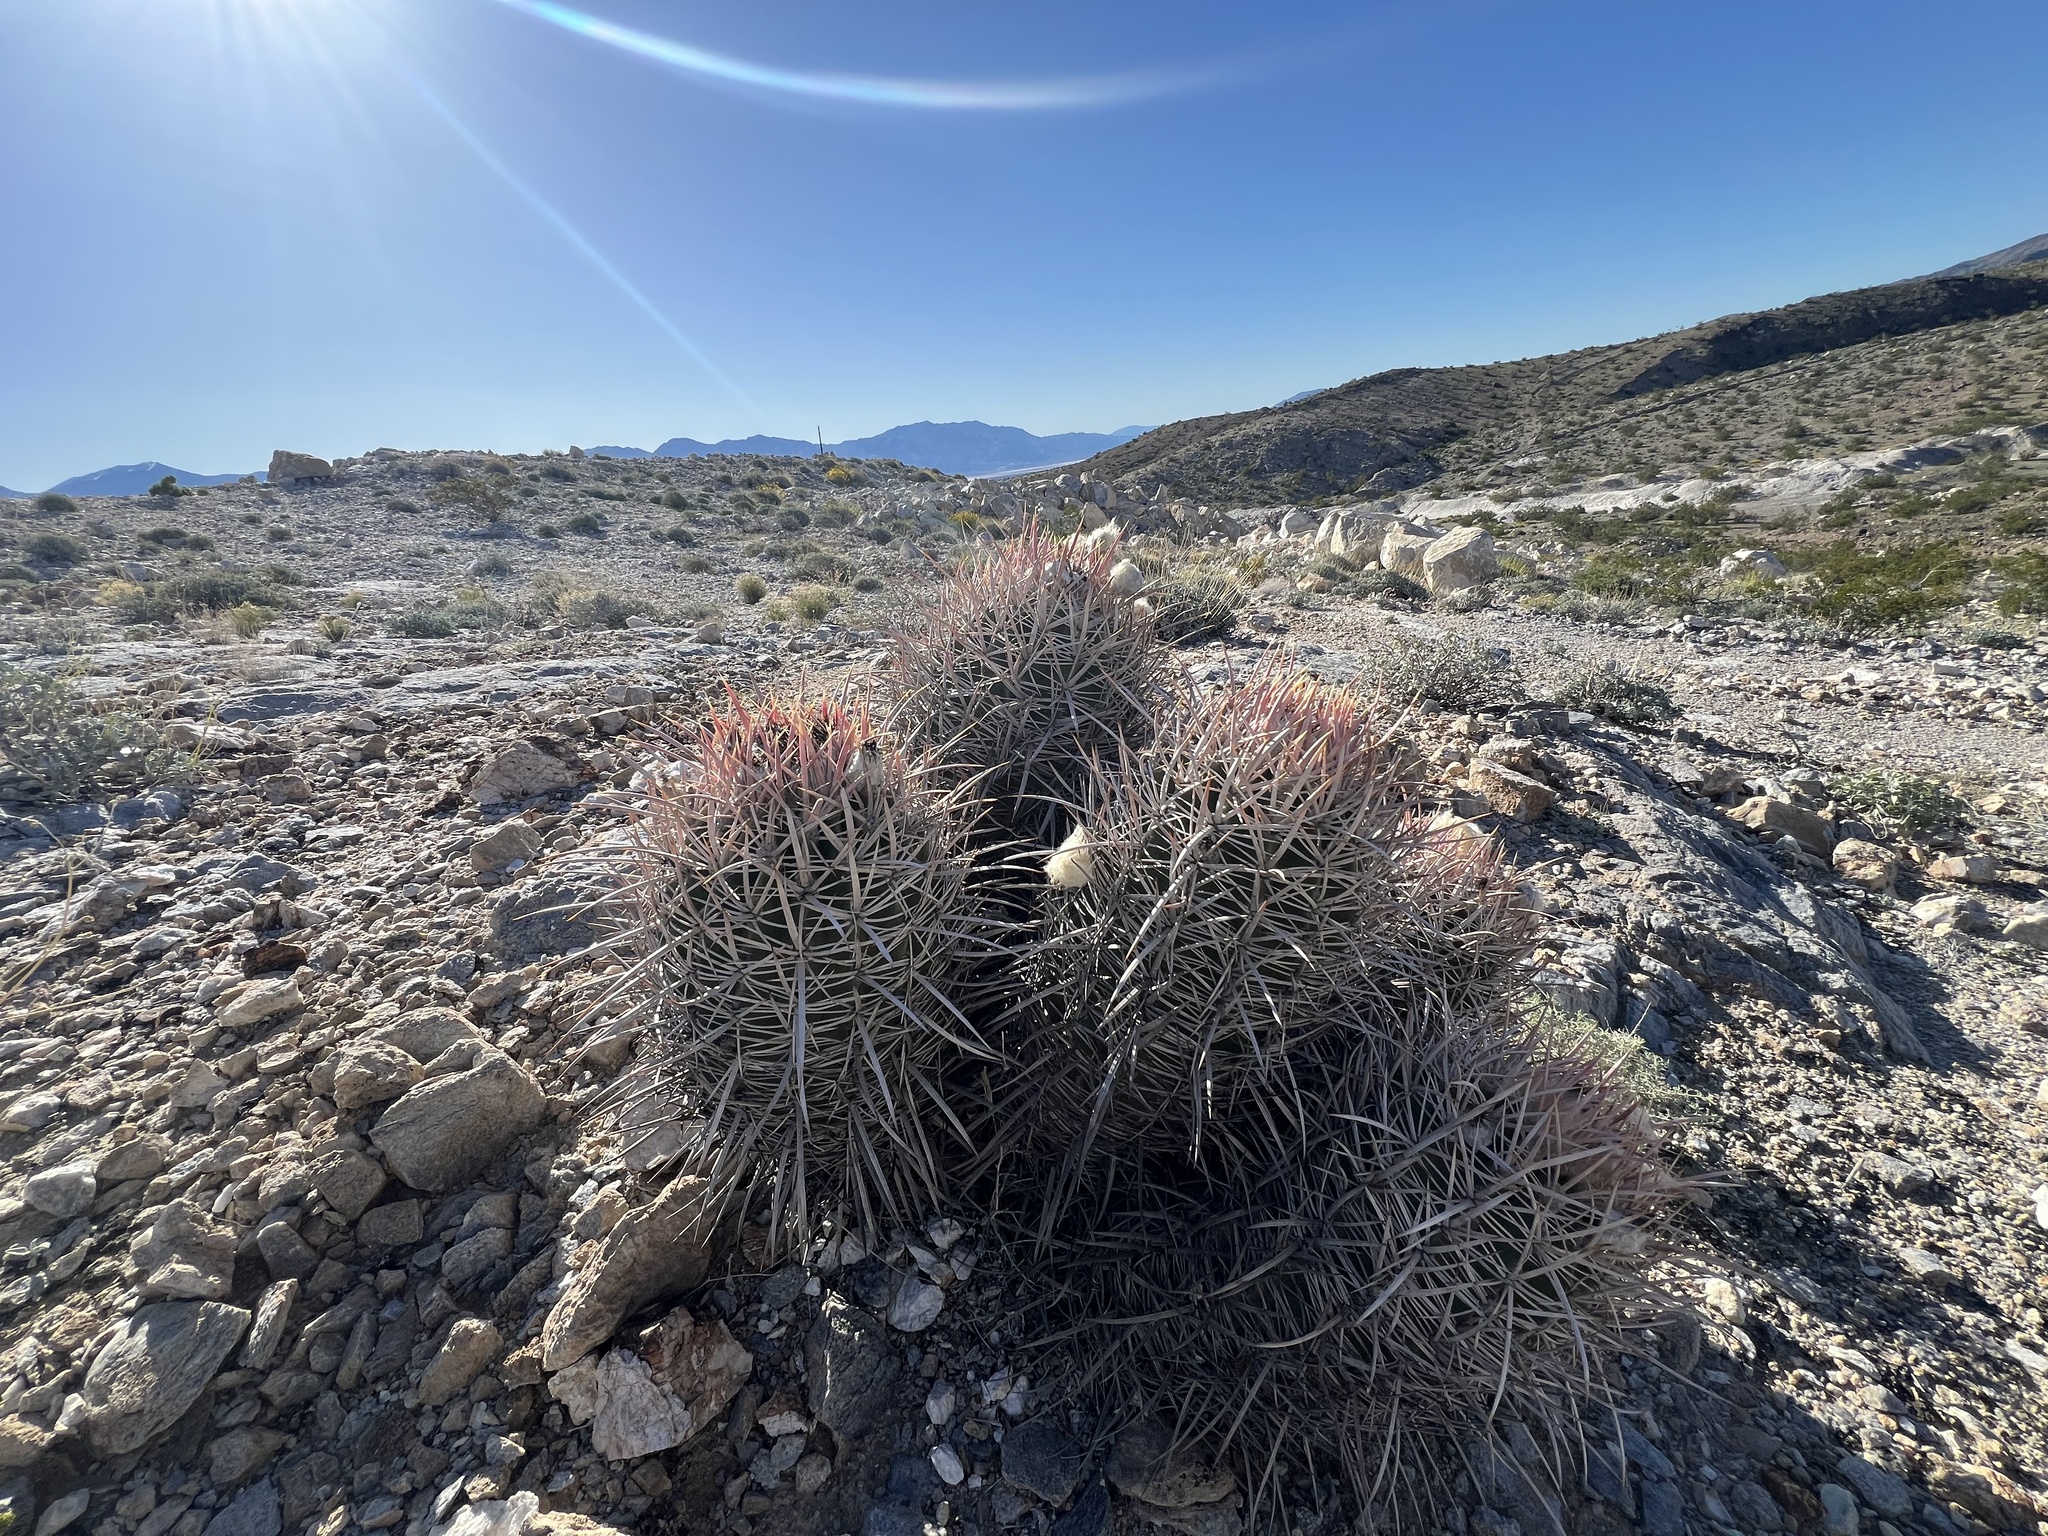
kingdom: Plantae
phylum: Tracheophyta
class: Magnoliopsida
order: Caryophyllales
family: Cactaceae
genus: Echinocactus
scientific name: Echinocactus polycephalus
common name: Cottontop cactus
